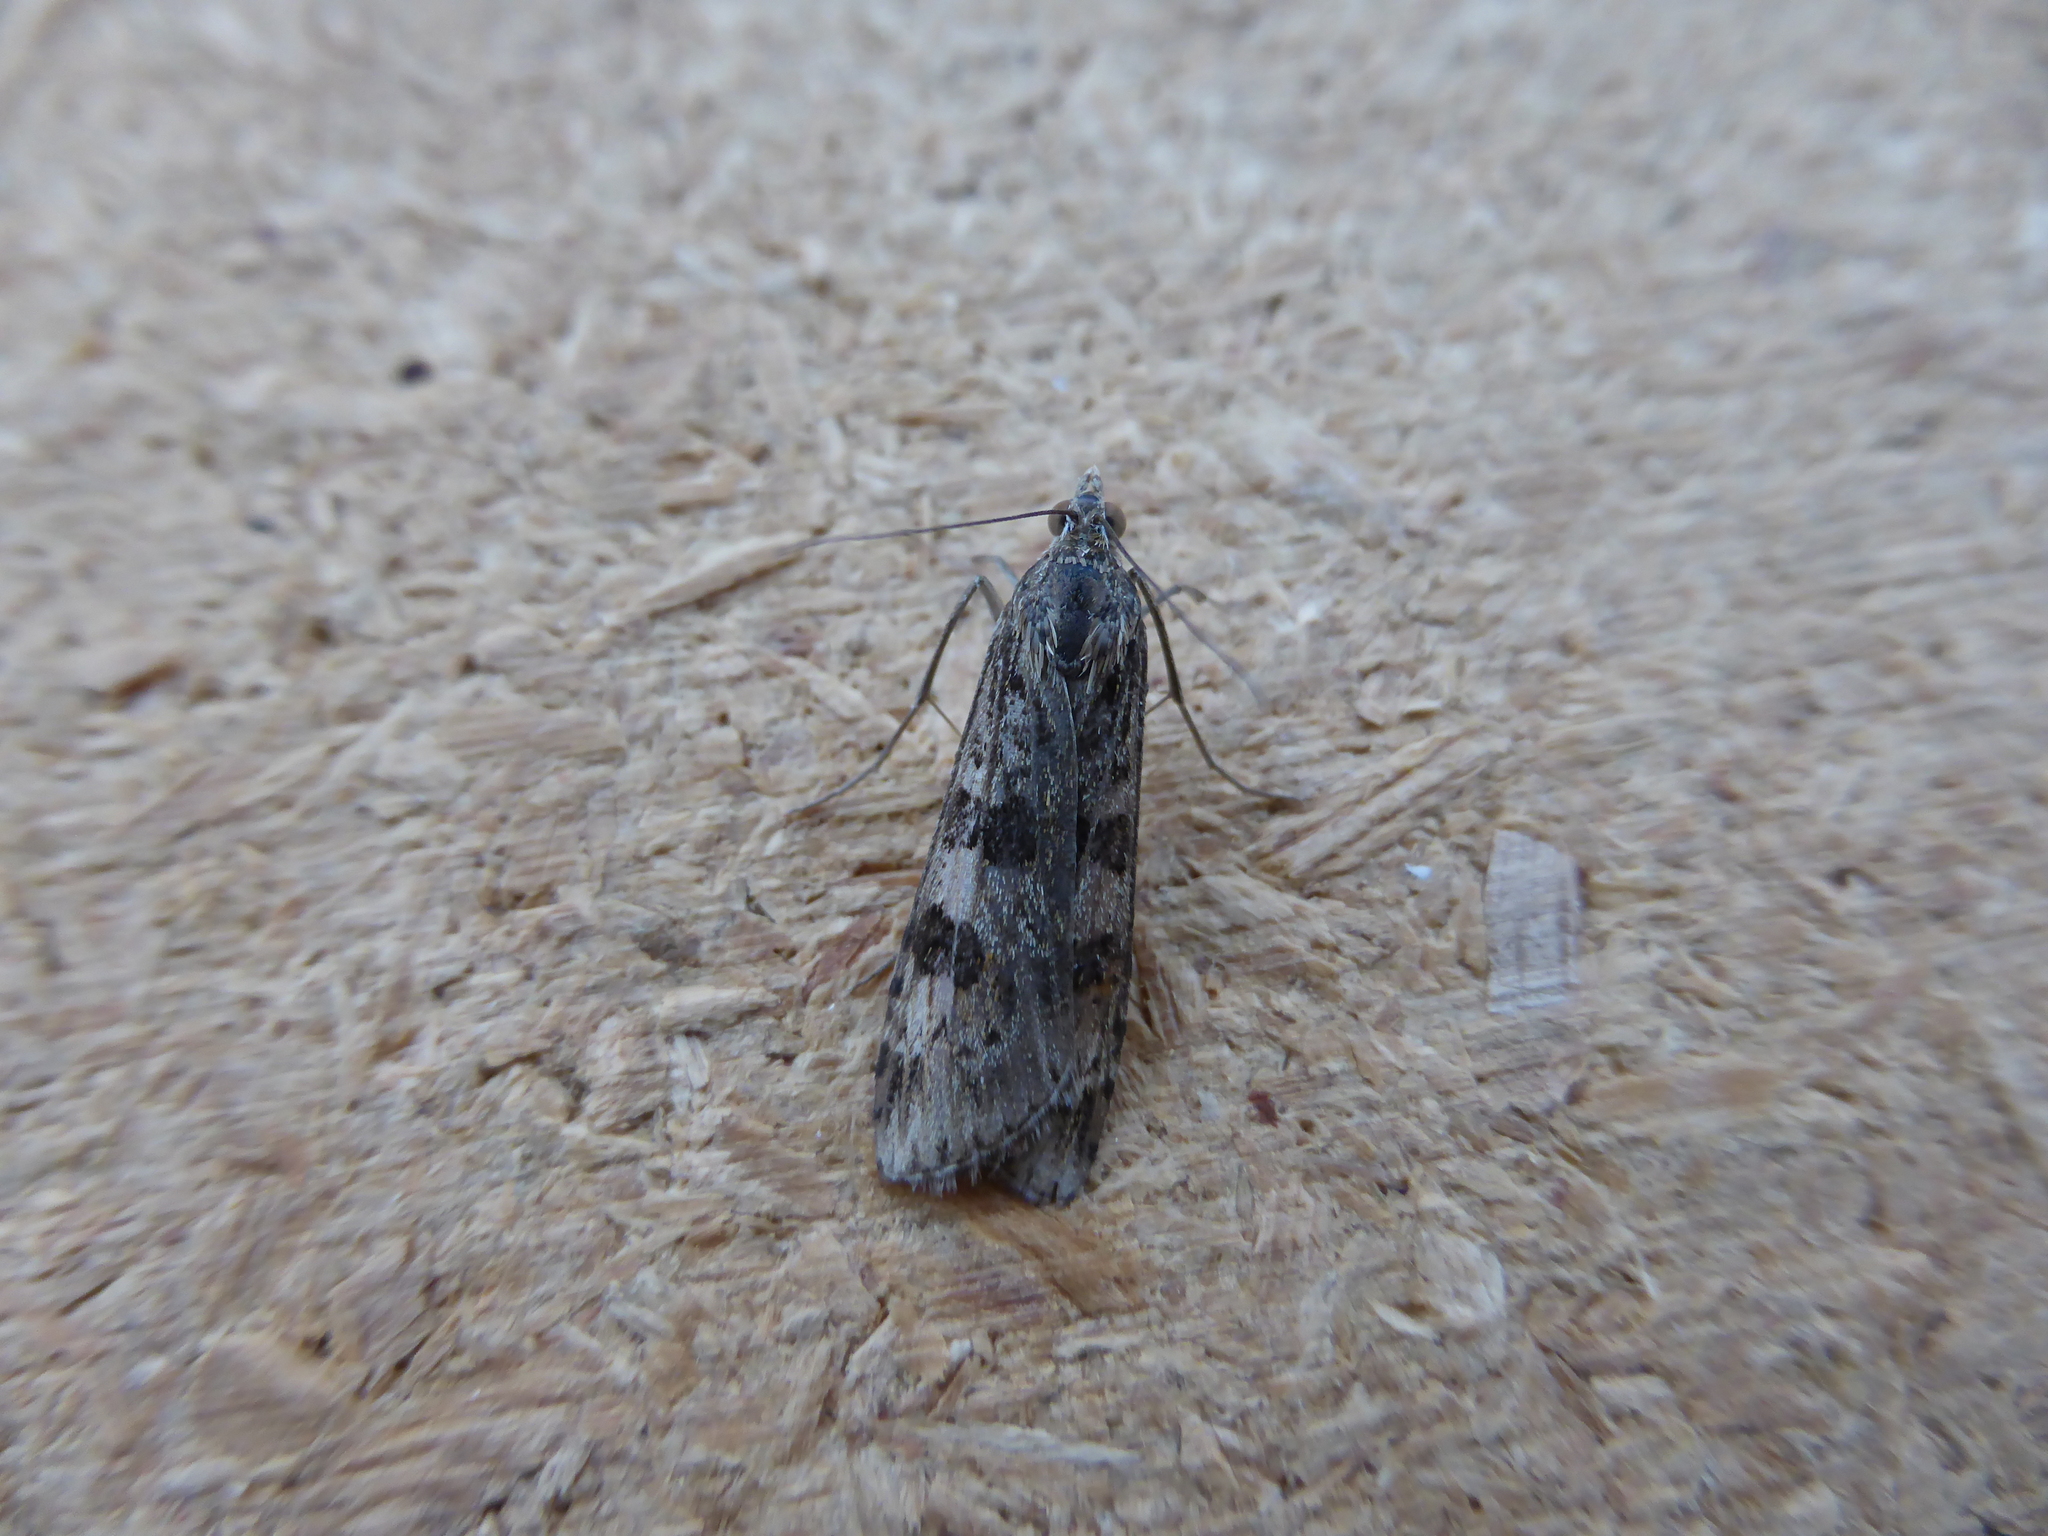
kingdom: Animalia
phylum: Arthropoda
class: Insecta
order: Lepidoptera
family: Crambidae
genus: Nomophila
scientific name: Nomophila noctuella
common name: Rush veneer
